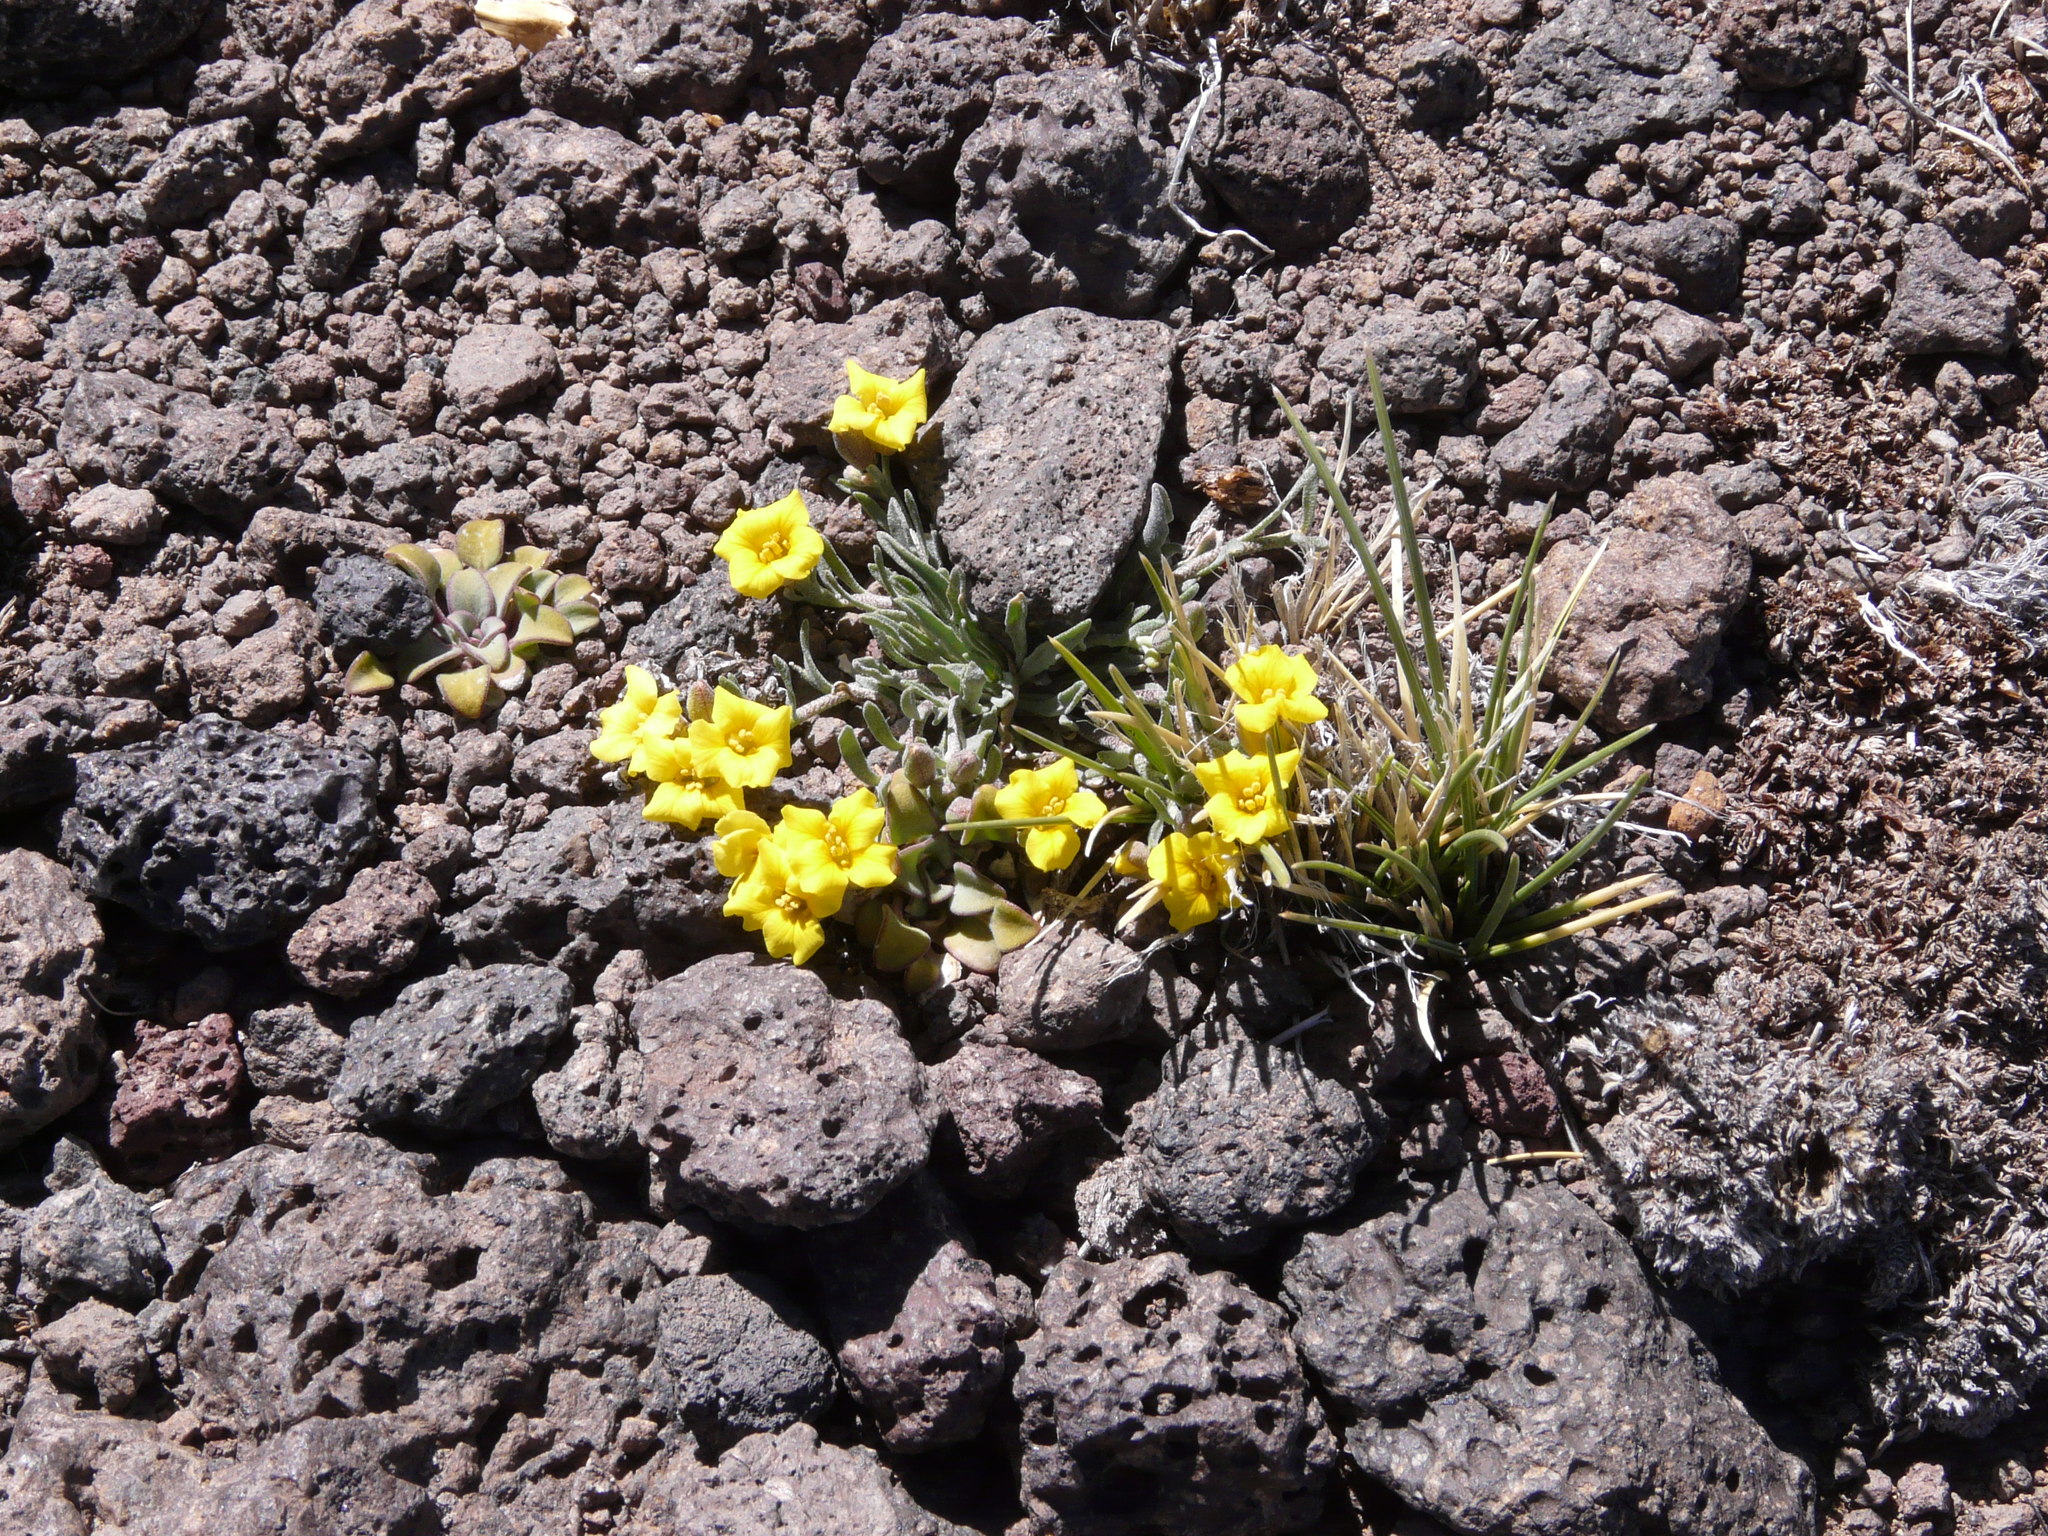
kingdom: Plantae
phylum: Tracheophyta
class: Magnoliopsida
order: Brassicales
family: Brassicaceae
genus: Physaria
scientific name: Physaria lateralis
